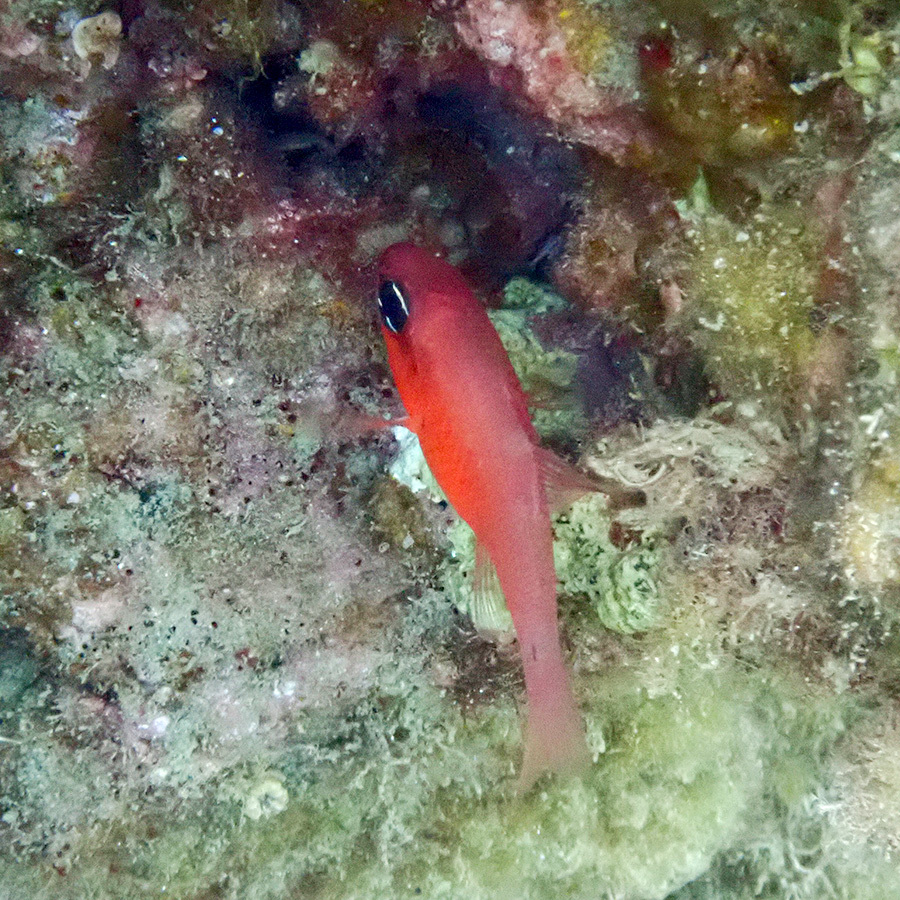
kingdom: Animalia
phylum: Chordata
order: Perciformes
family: Apogonidae
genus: Apogon
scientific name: Apogon imberbis
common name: Cardinal fish
